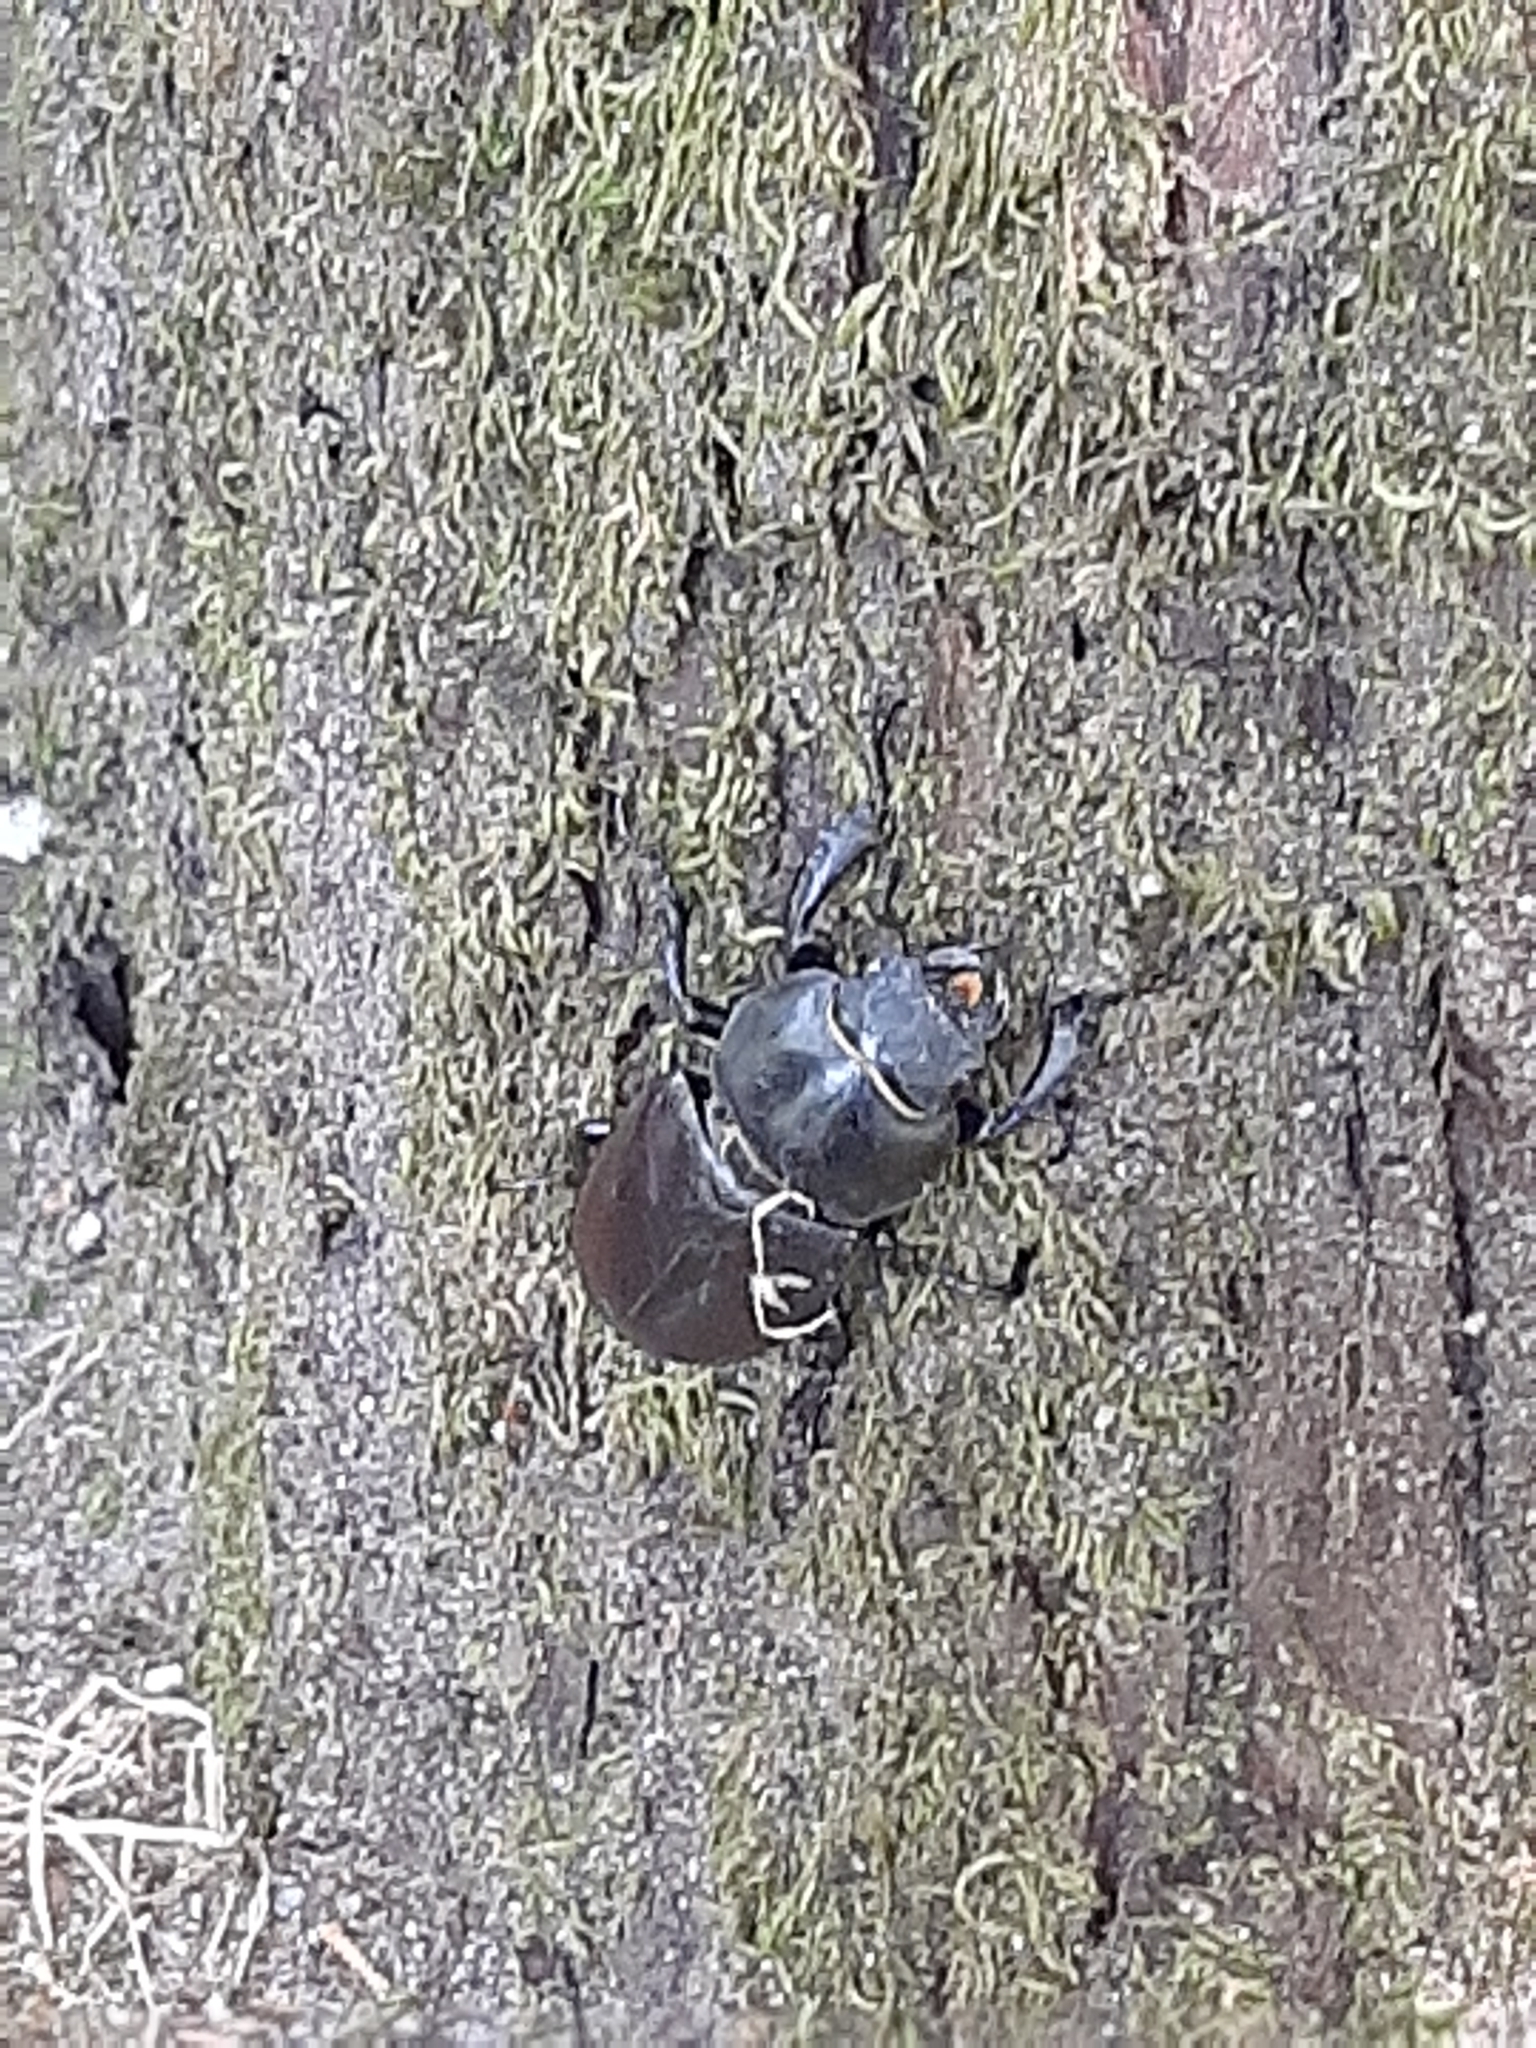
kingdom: Animalia
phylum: Arthropoda
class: Insecta
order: Coleoptera
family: Lucanidae
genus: Lucanus
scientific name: Lucanus cervus
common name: Stag beetle
